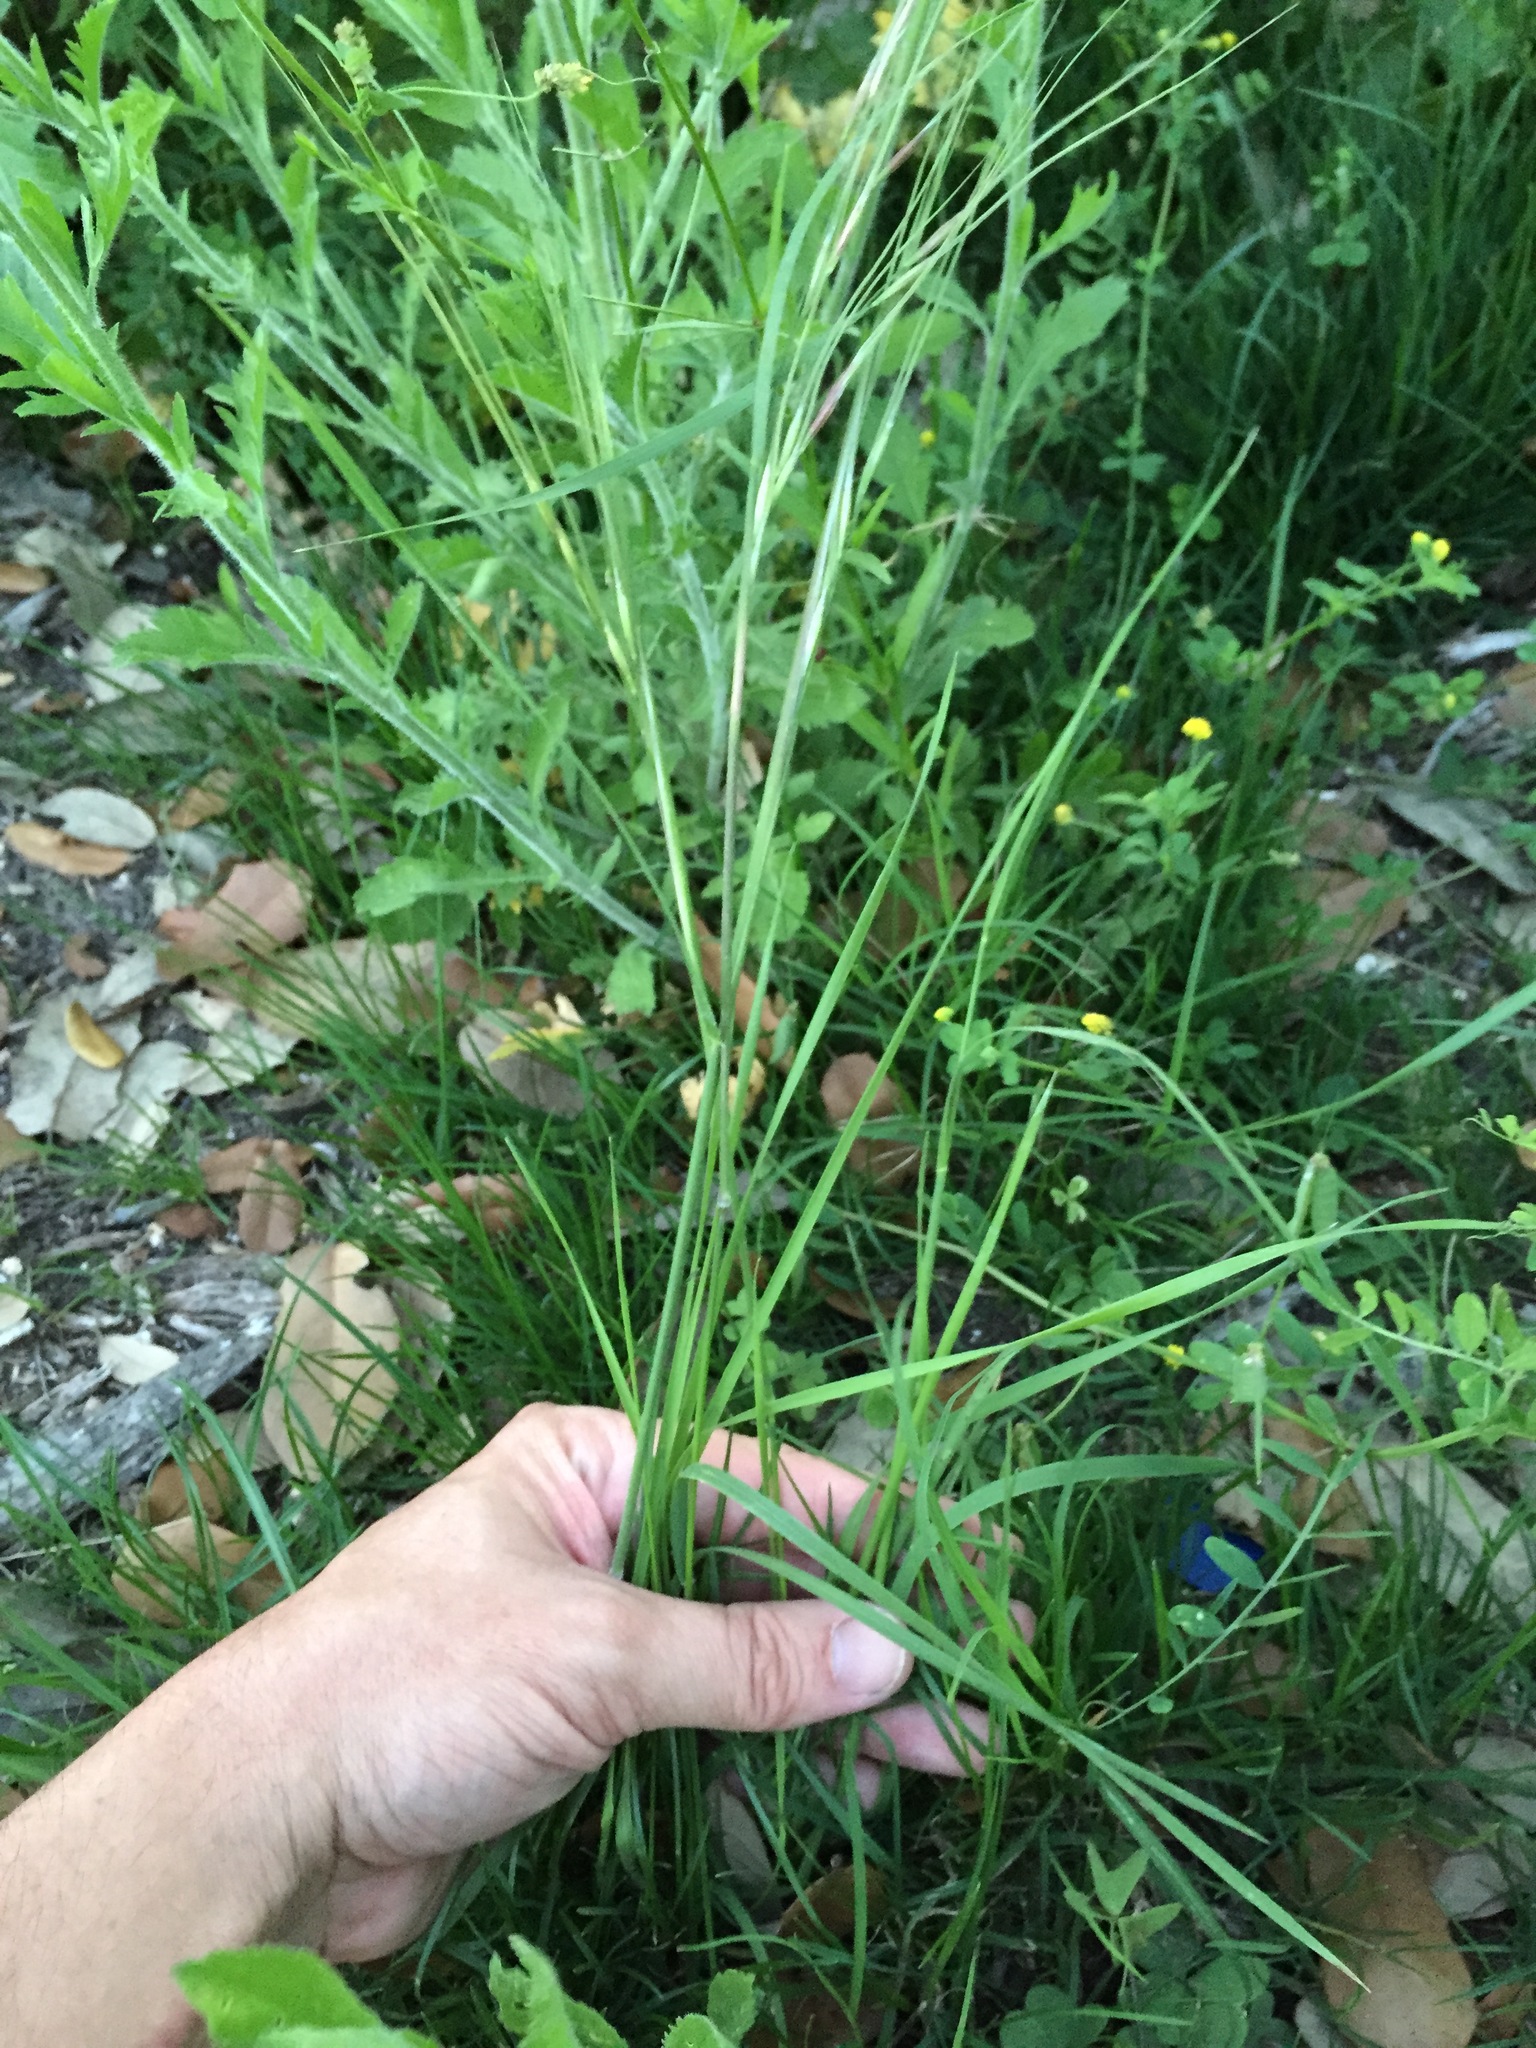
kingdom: Plantae
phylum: Tracheophyta
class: Liliopsida
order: Poales
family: Poaceae
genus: Nassella
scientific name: Nassella leucotricha
